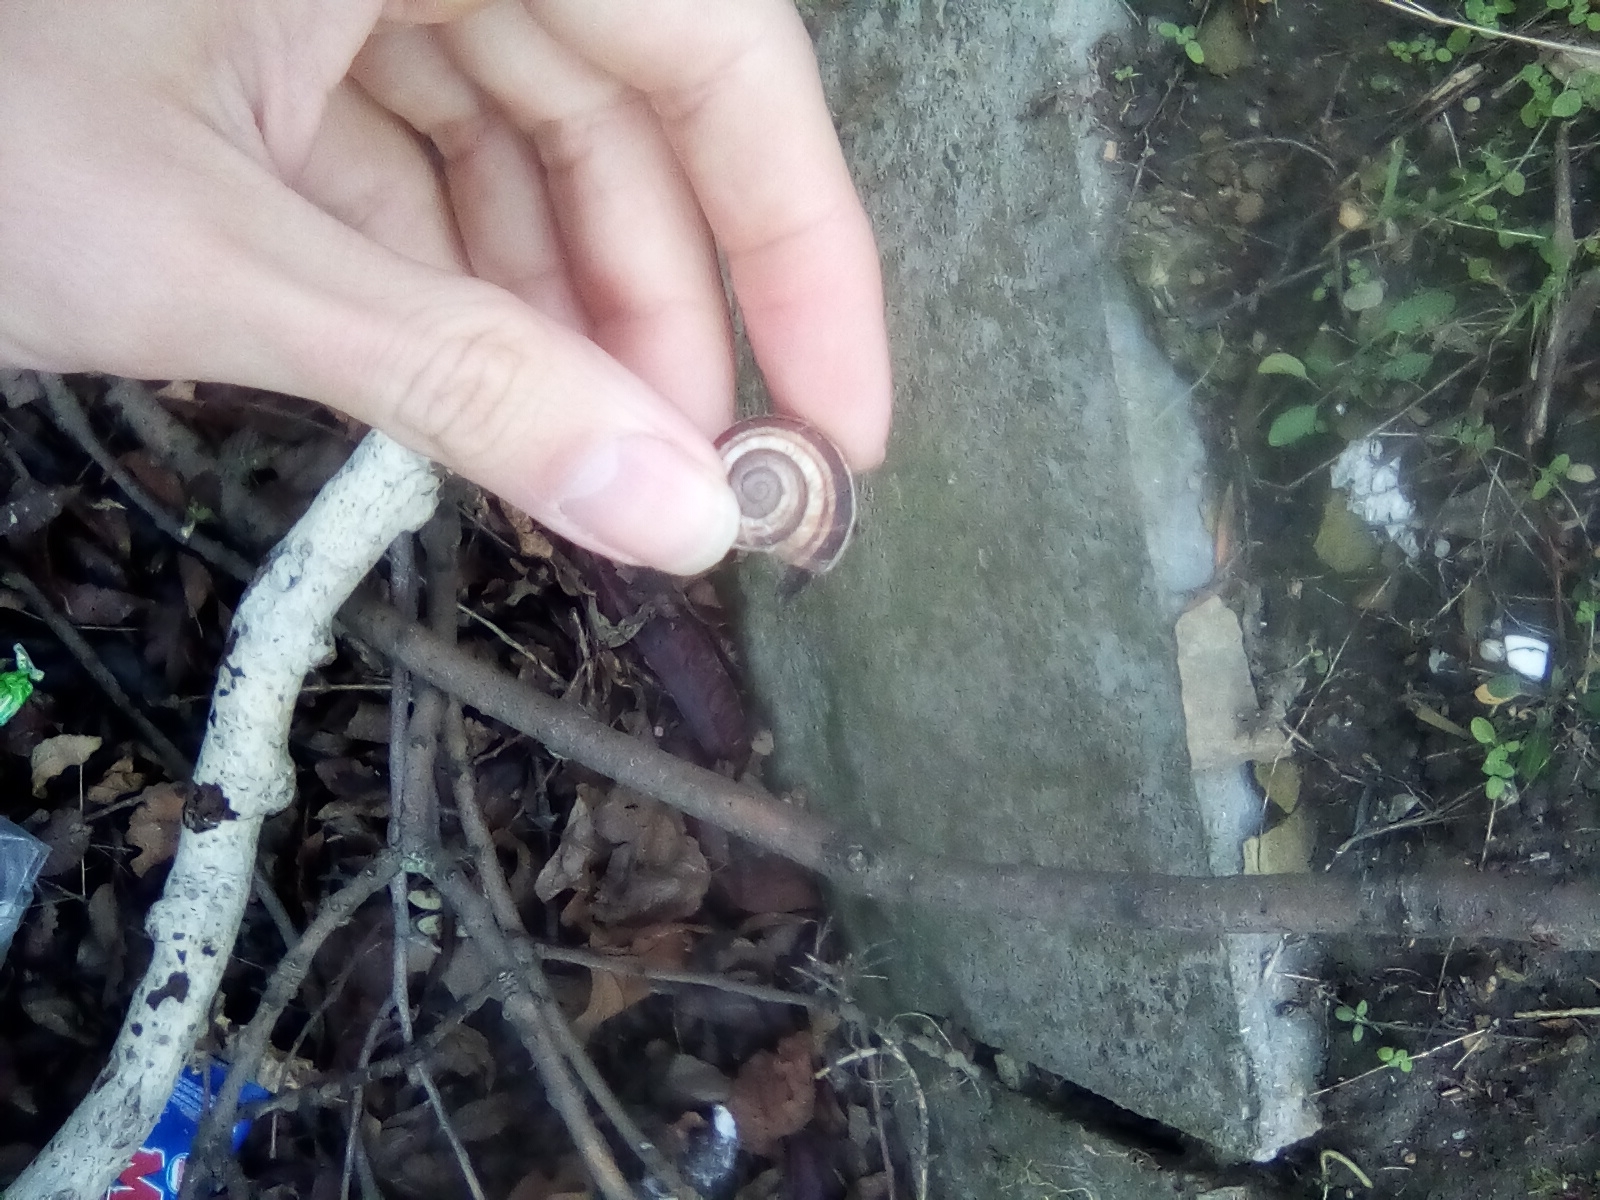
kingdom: Animalia
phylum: Mollusca
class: Gastropoda
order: Stylommatophora
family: Helicidae
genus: Helix
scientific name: Helix lucorum
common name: Turkish snail
